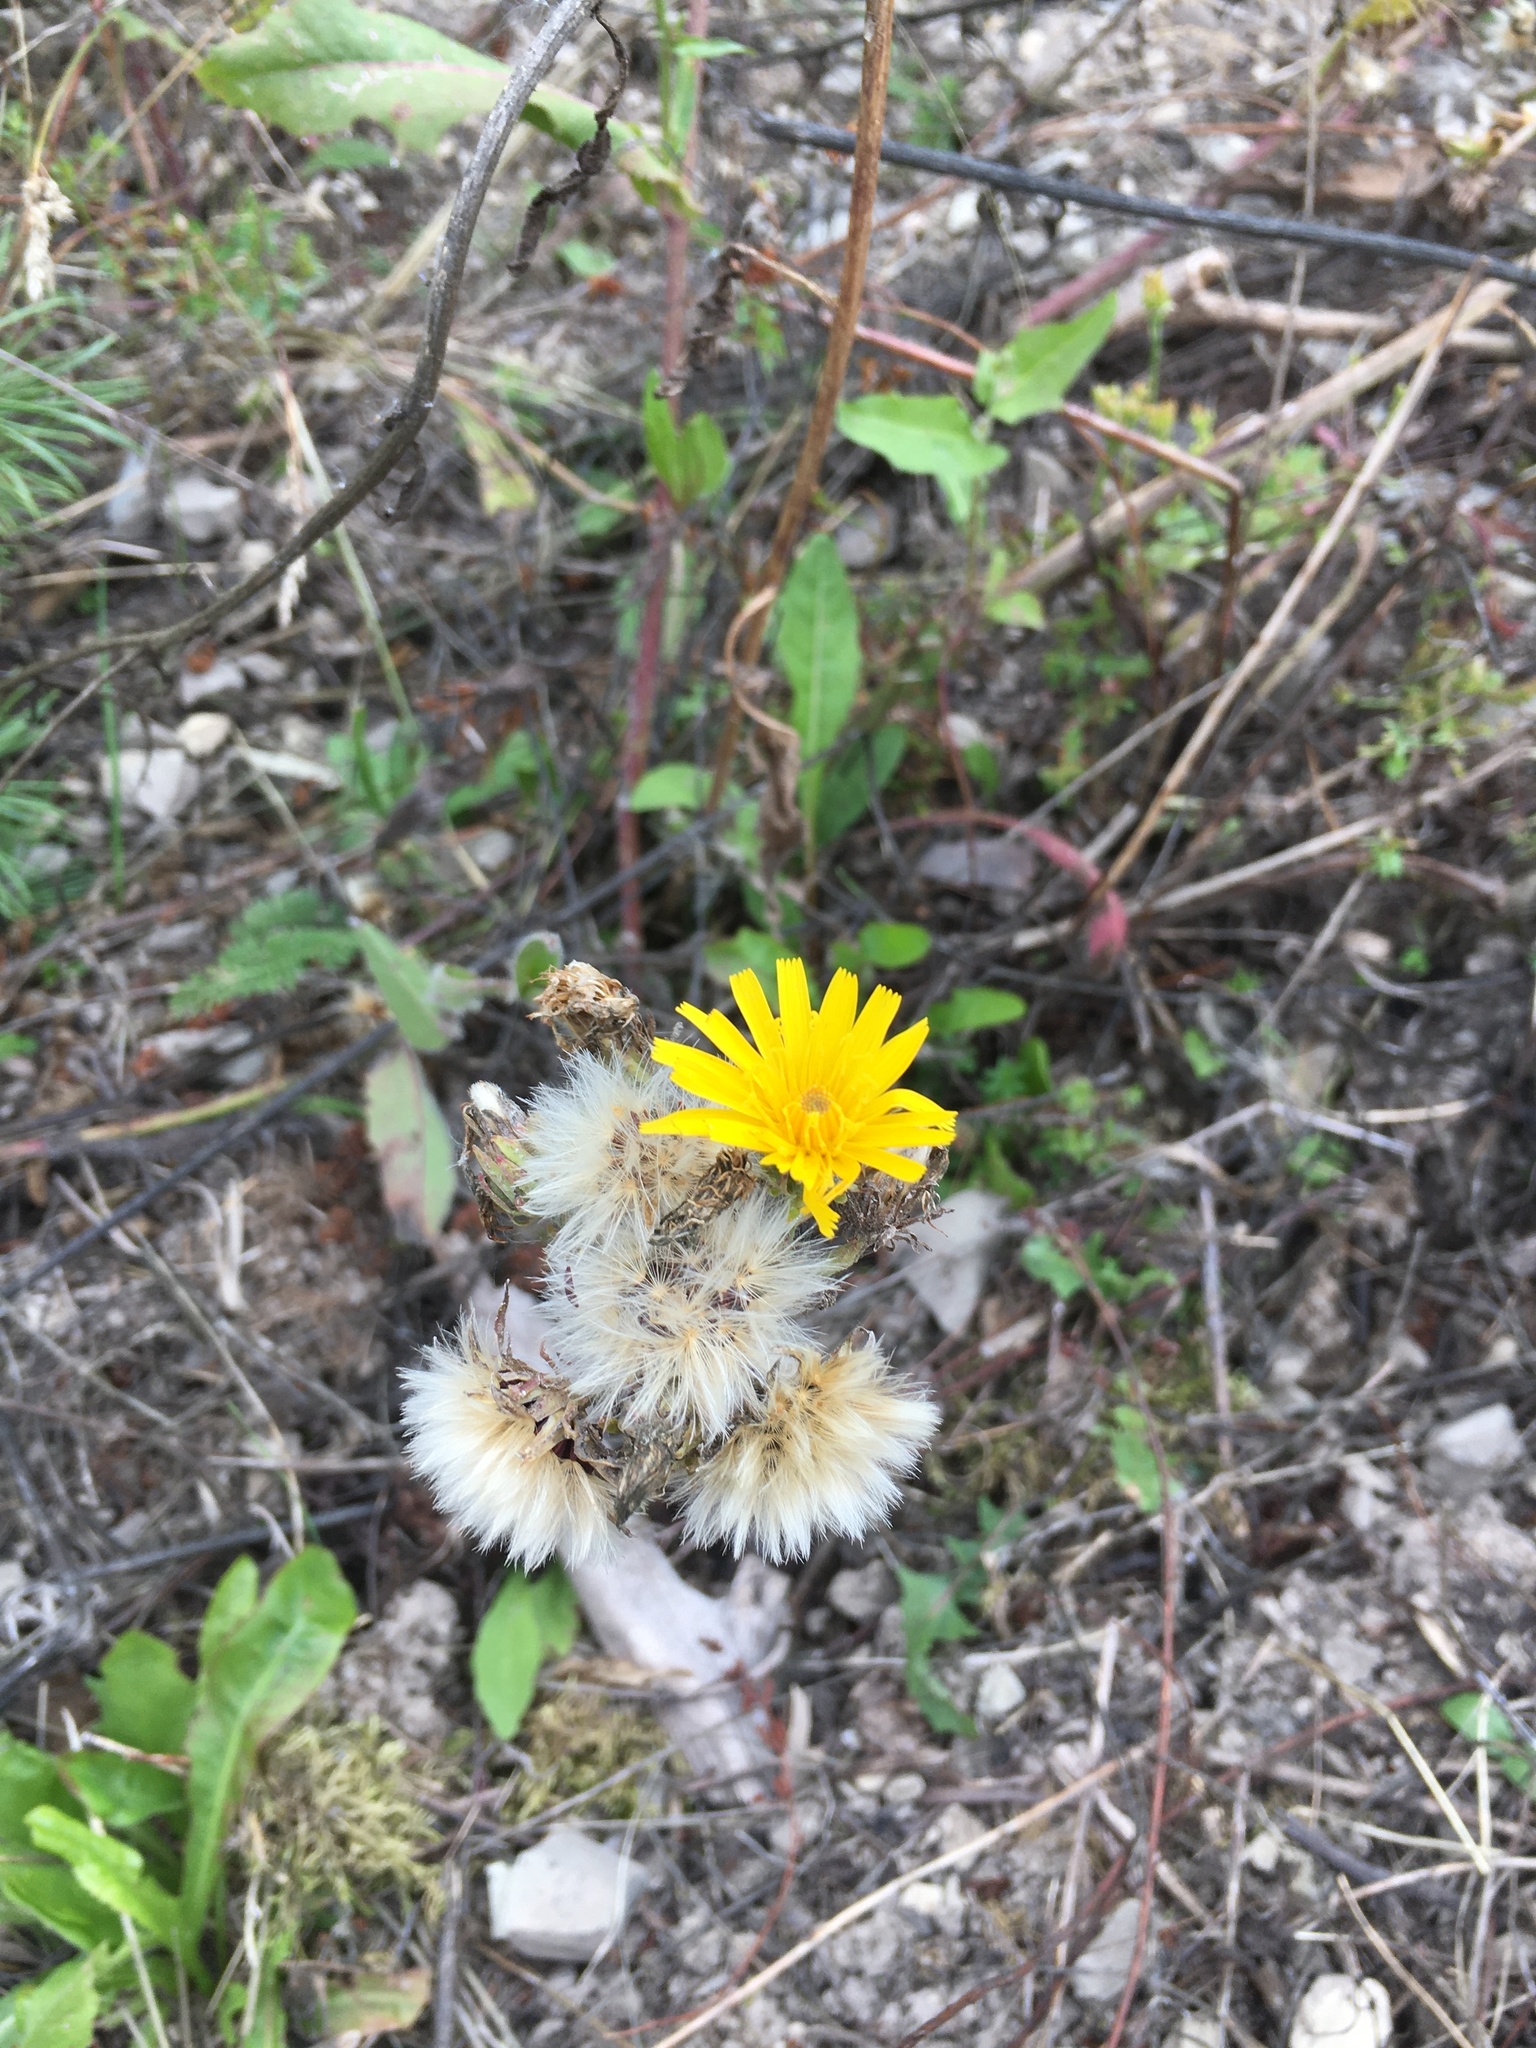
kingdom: Plantae
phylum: Tracheophyta
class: Magnoliopsida
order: Asterales
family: Asteraceae
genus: Picris
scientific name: Picris hieracioides
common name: Hawkweed oxtongue
